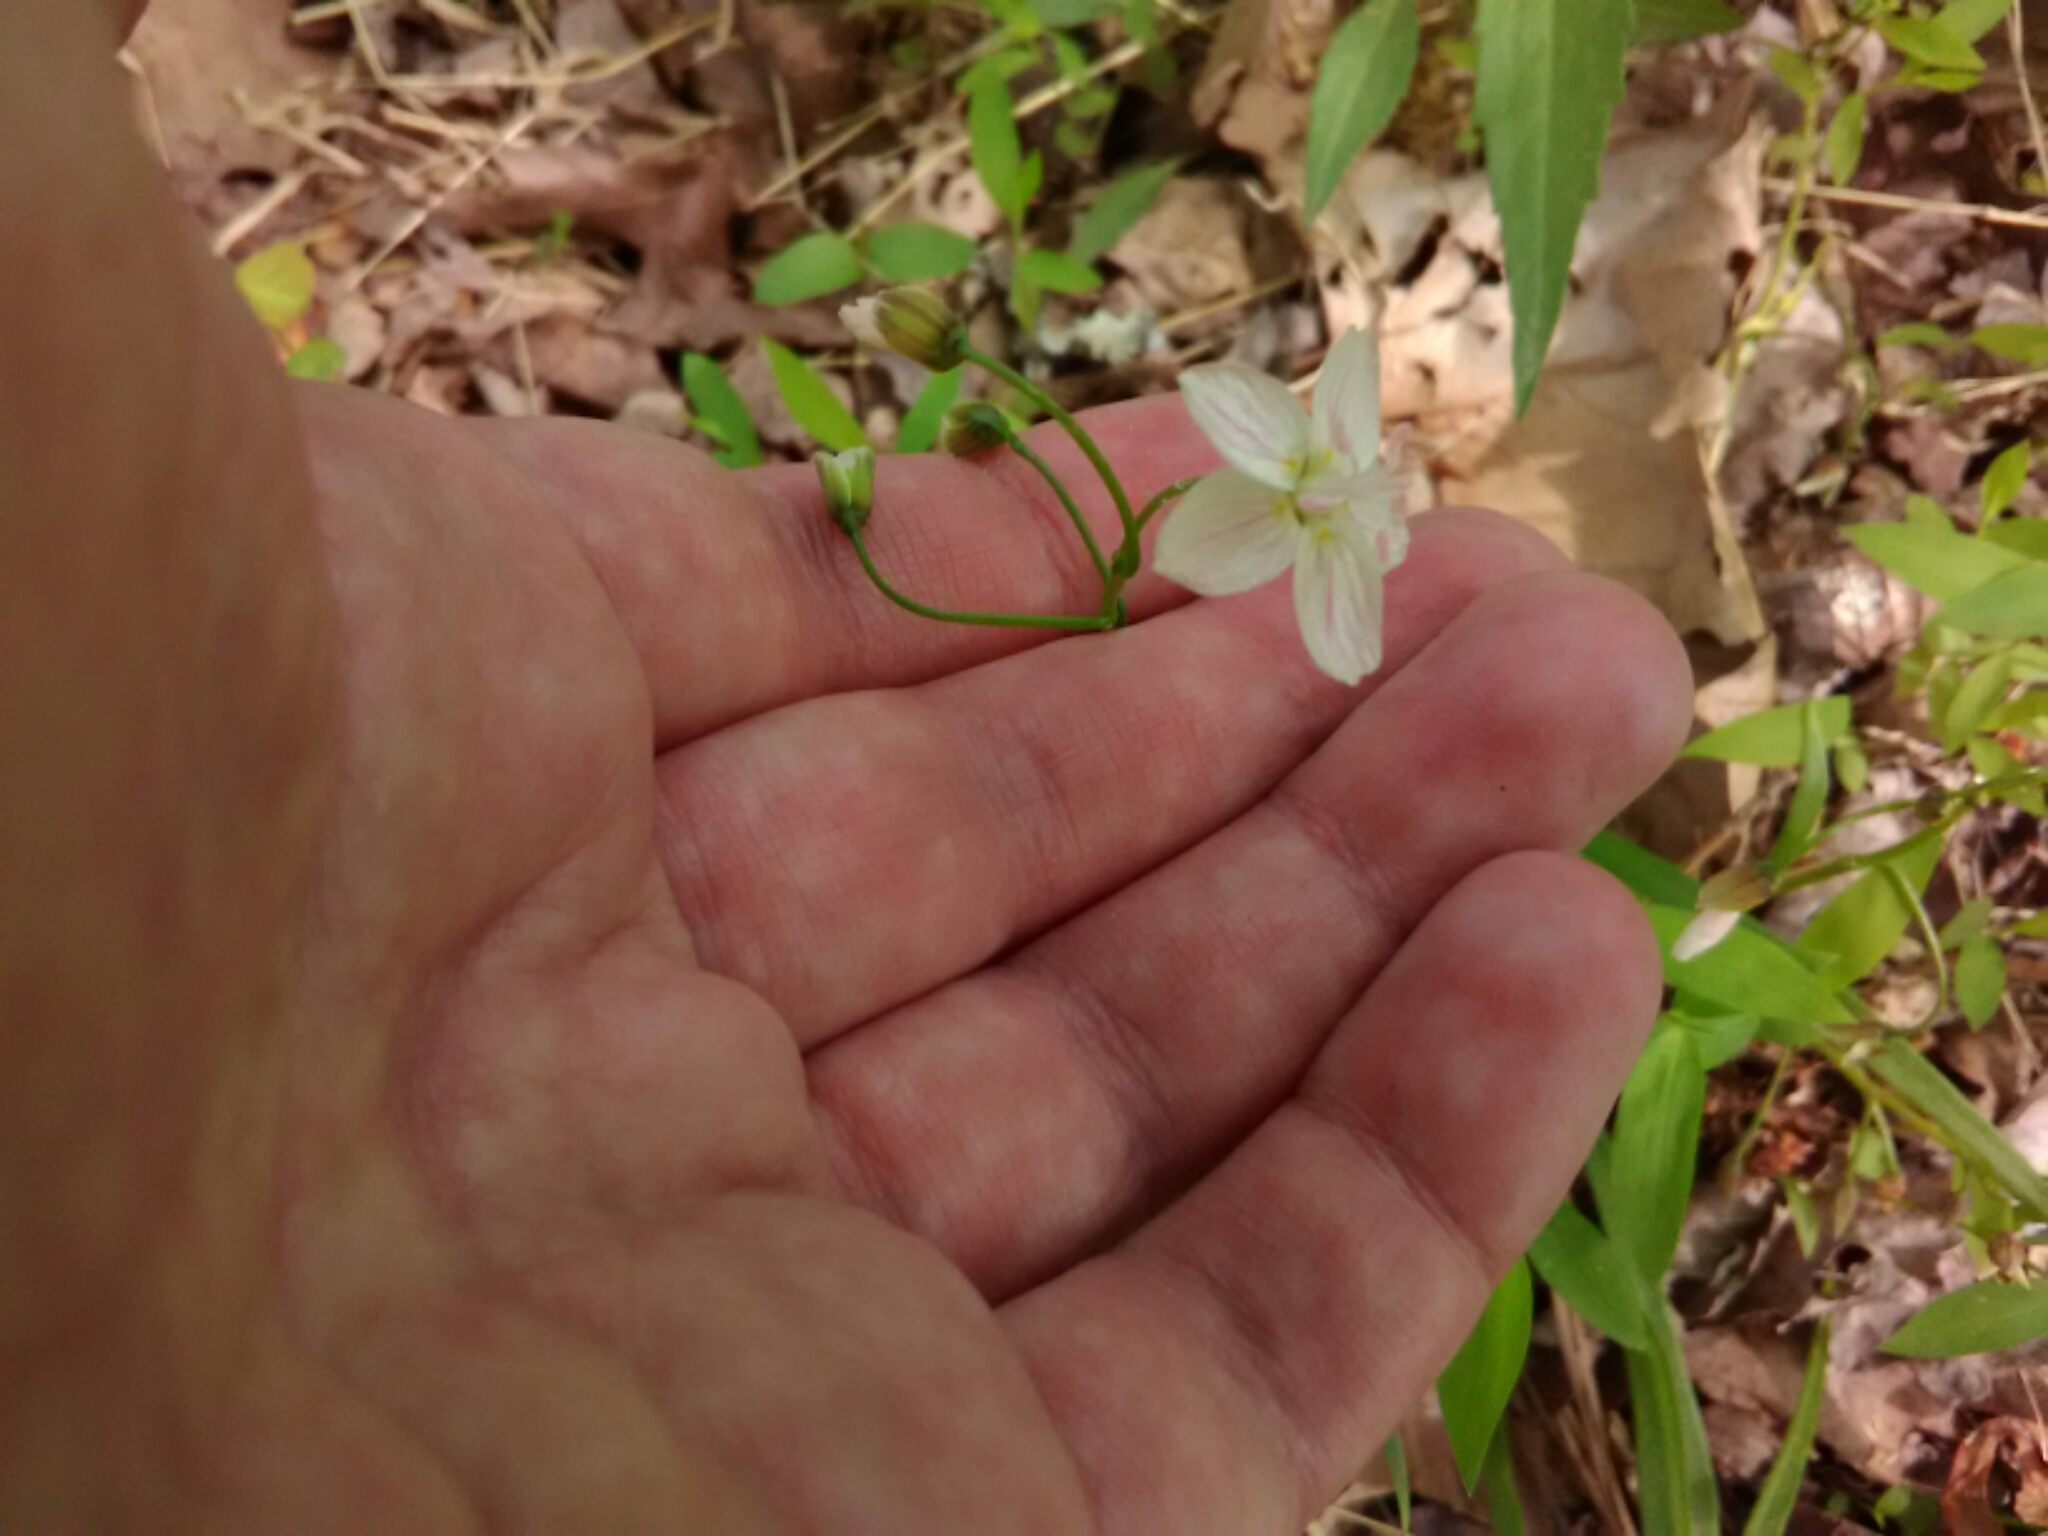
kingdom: Plantae
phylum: Tracheophyta
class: Magnoliopsida
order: Caryophyllales
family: Montiaceae
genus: Claytonia
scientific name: Claytonia virginica
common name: Virginia springbeauty
